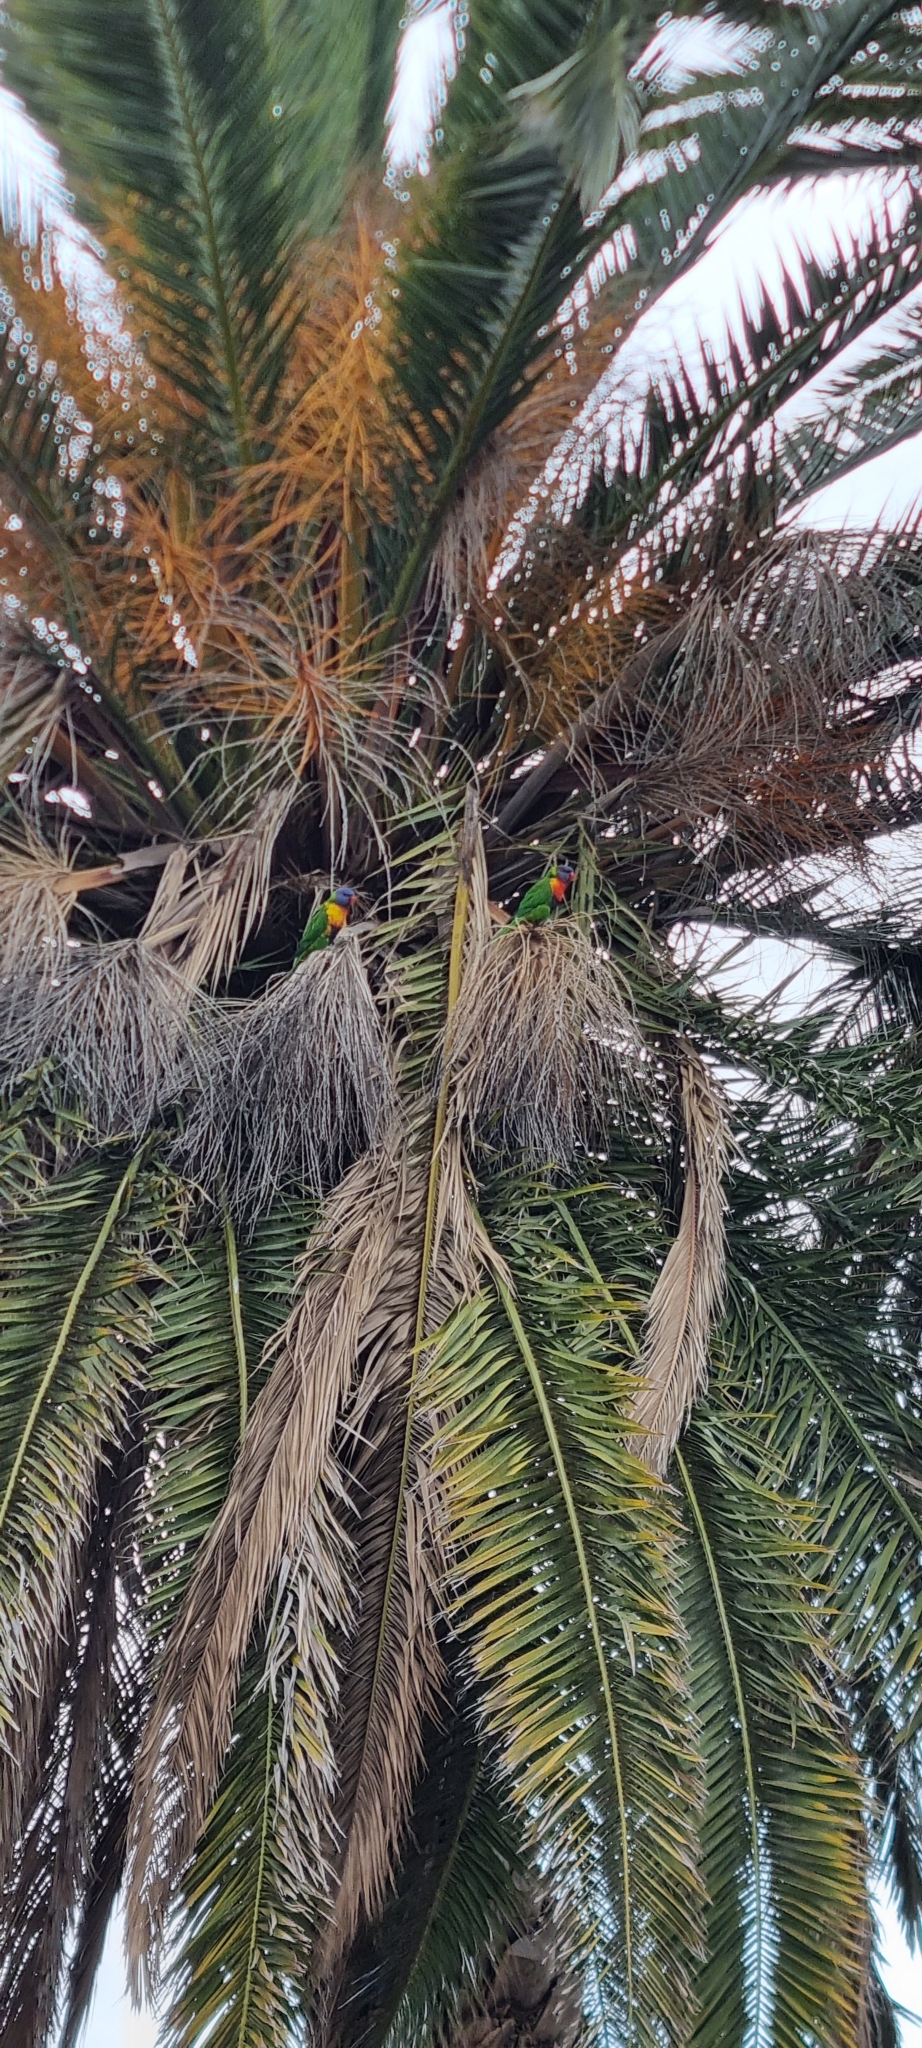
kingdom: Animalia
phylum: Chordata
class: Aves
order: Psittaciformes
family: Psittacidae
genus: Trichoglossus
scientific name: Trichoglossus haematodus
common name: Coconut lorikeet
